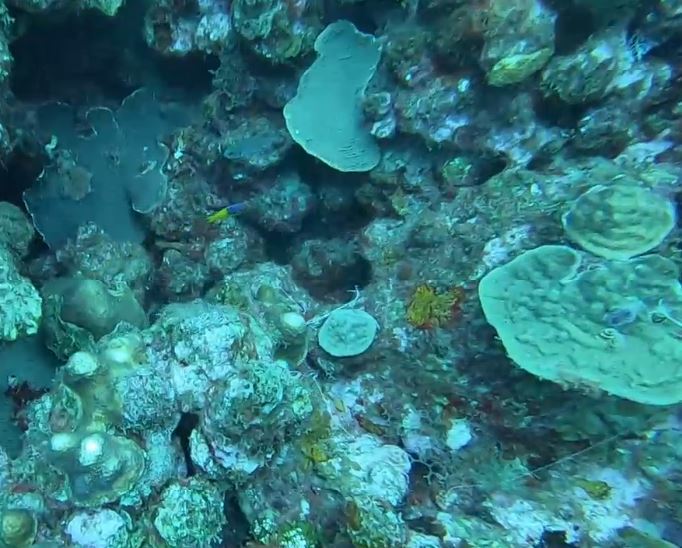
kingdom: Animalia
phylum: Chordata
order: Perciformes
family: Grammatidae
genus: Gramma
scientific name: Gramma loreto
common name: Fairy basslet
